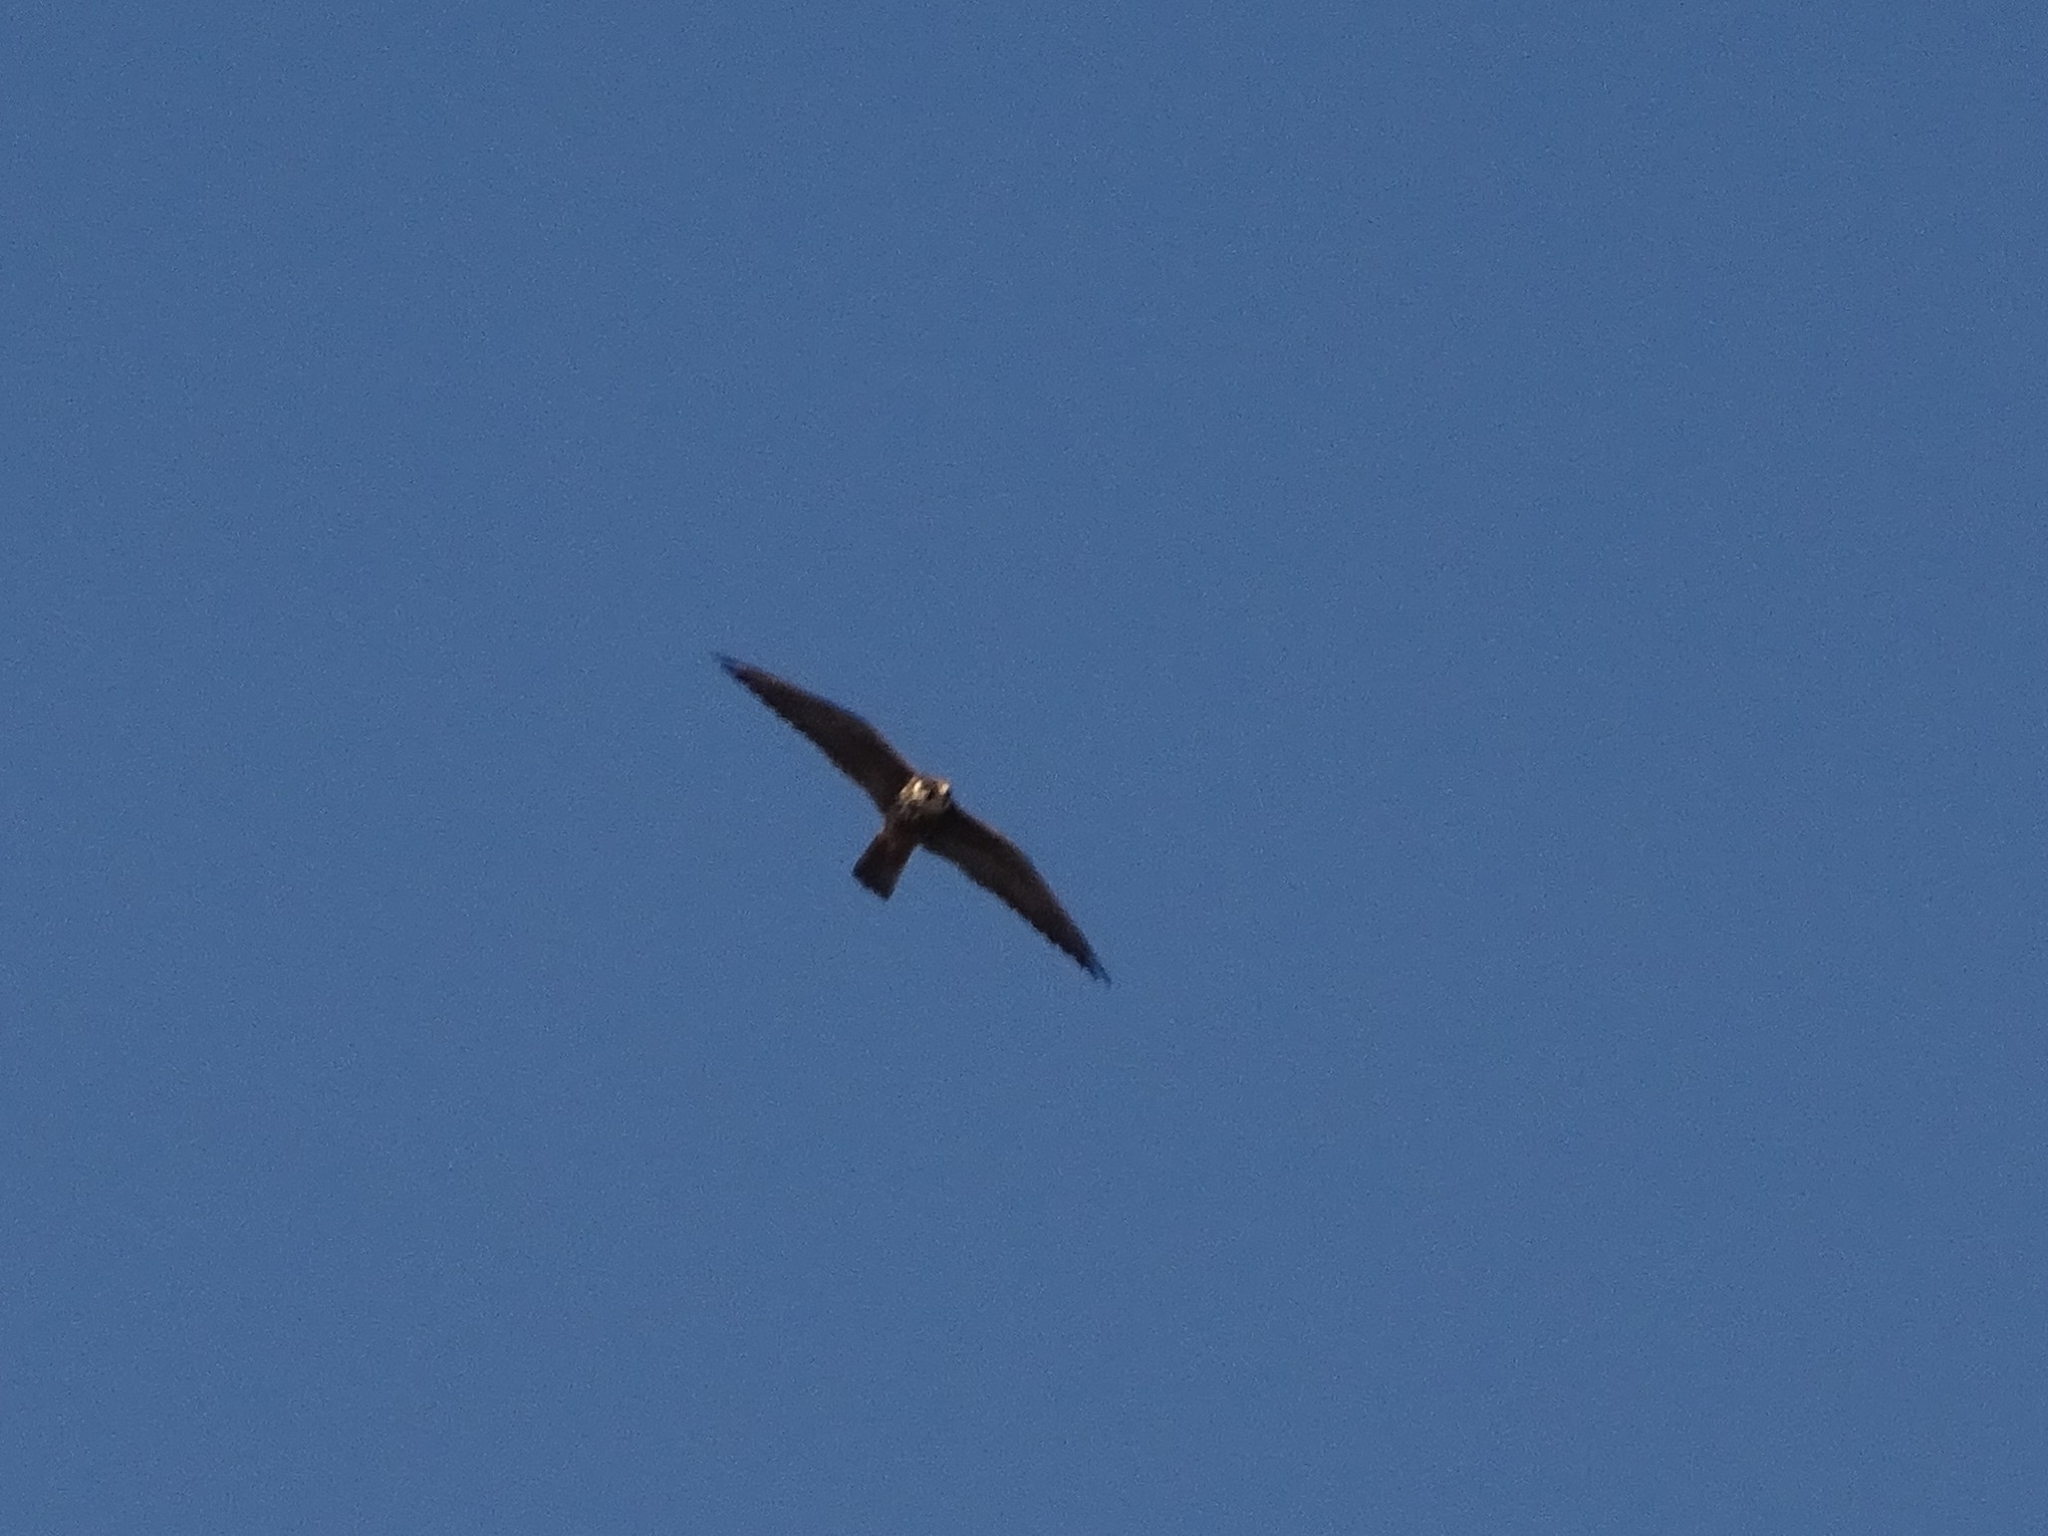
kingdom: Animalia
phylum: Chordata
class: Aves
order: Falconiformes
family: Falconidae
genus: Falco
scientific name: Falco subbuteo
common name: Eurasian hobby
